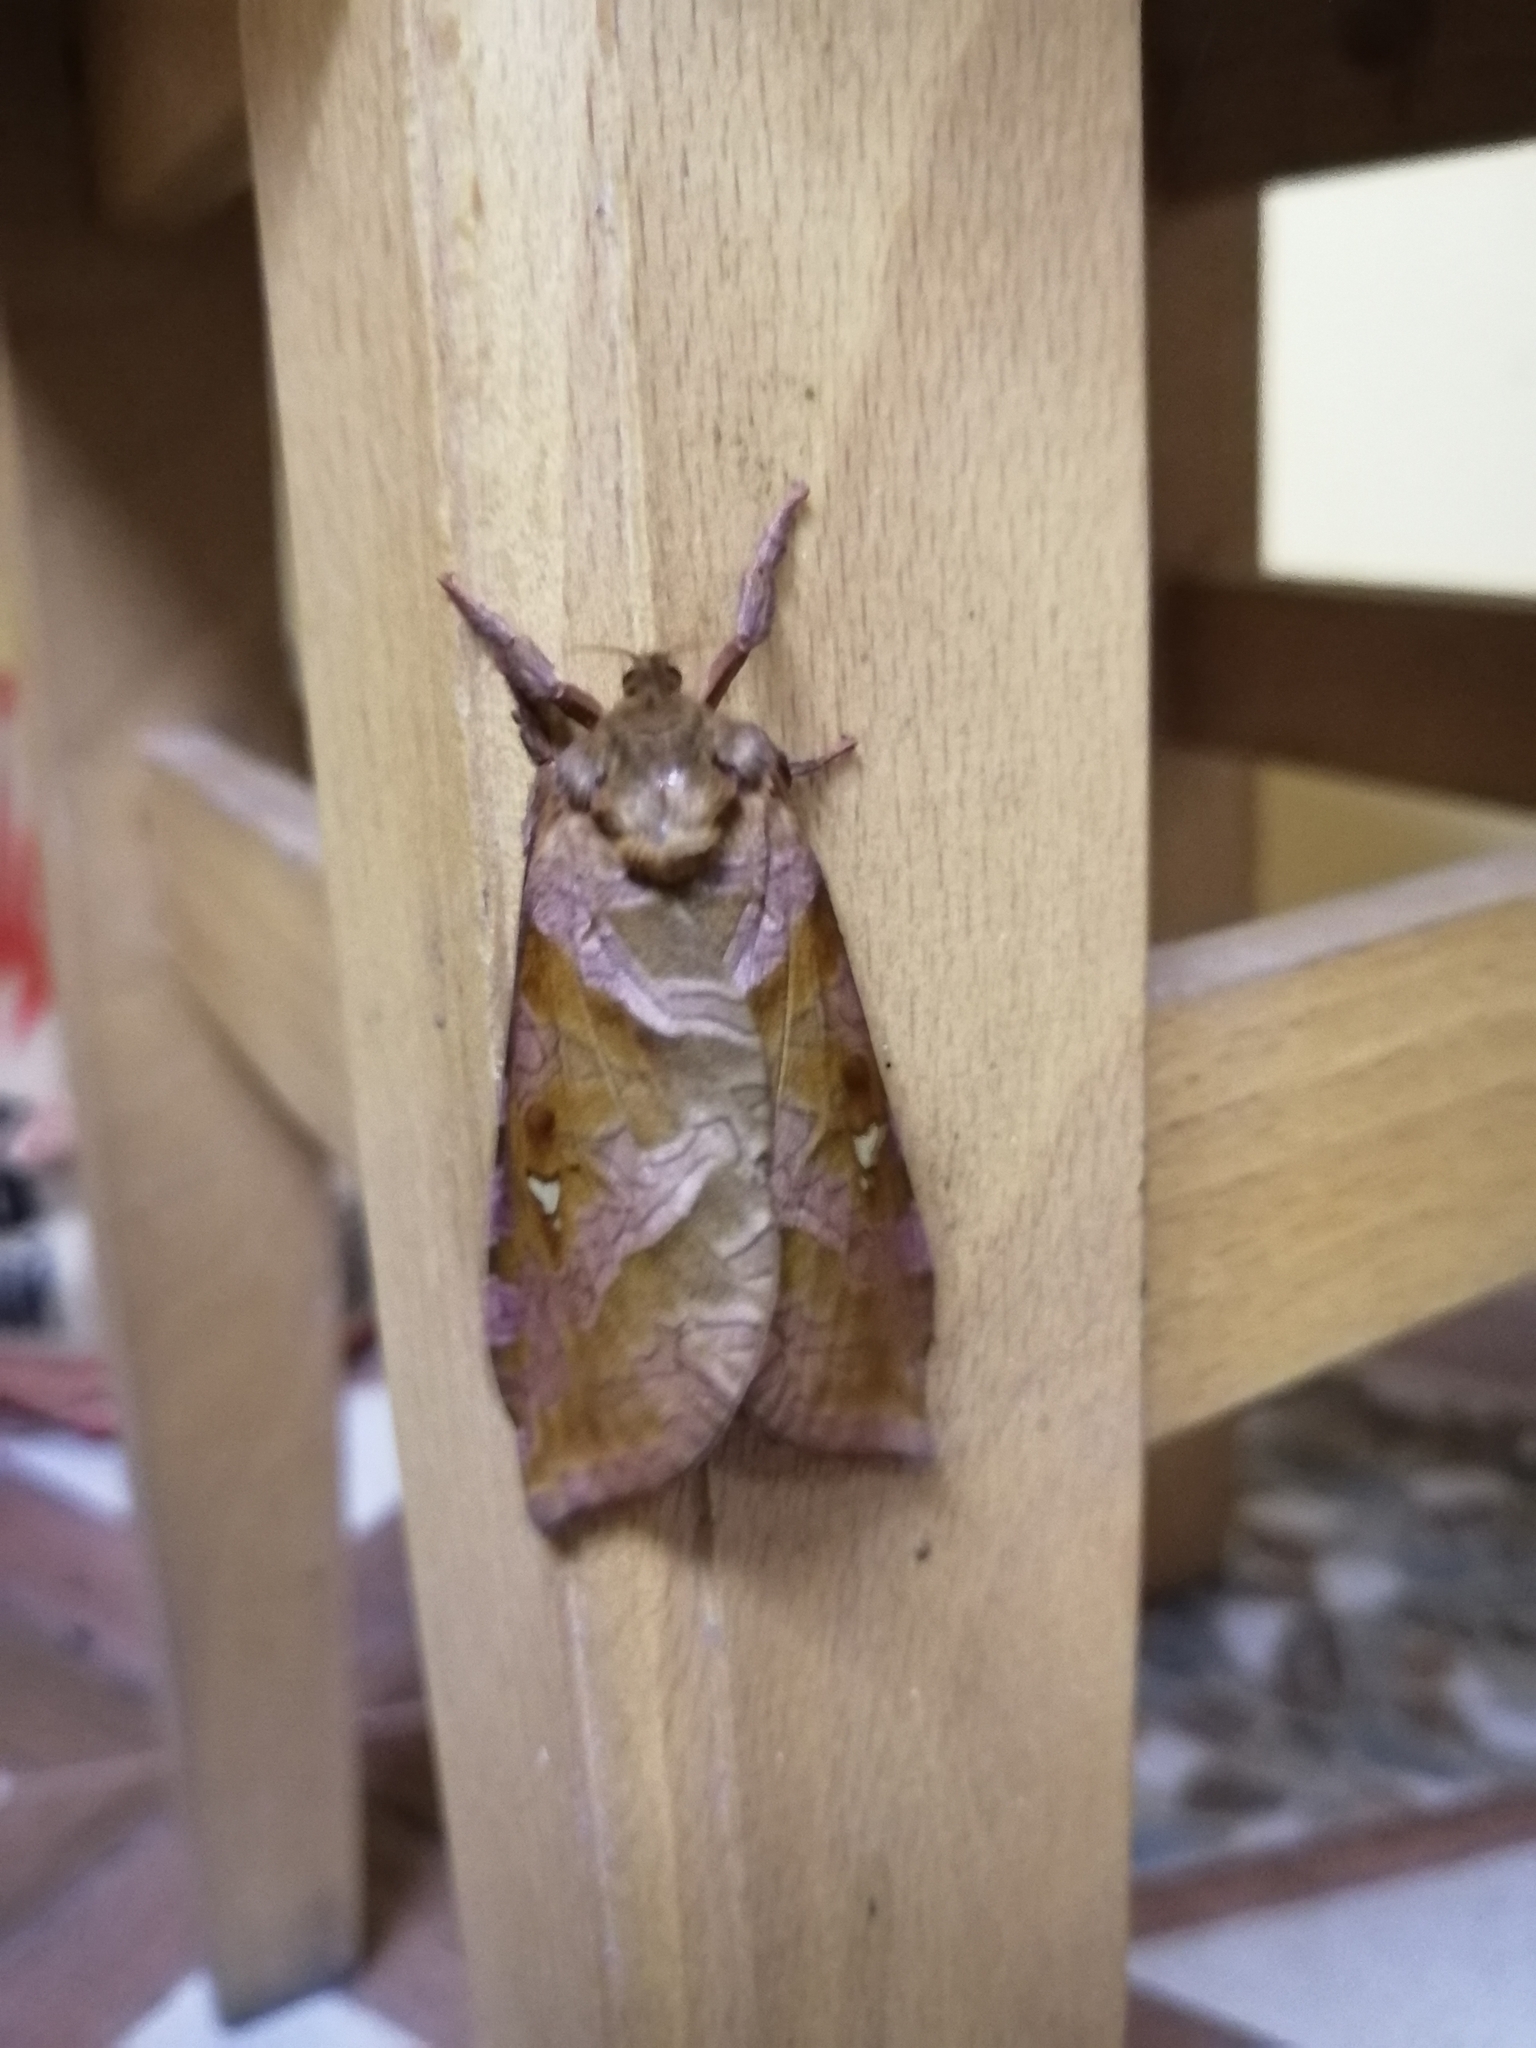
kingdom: Animalia
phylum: Arthropoda
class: Insecta
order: Lepidoptera
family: Hepialidae
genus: Zenophassus
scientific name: Zenophassus schamyl
